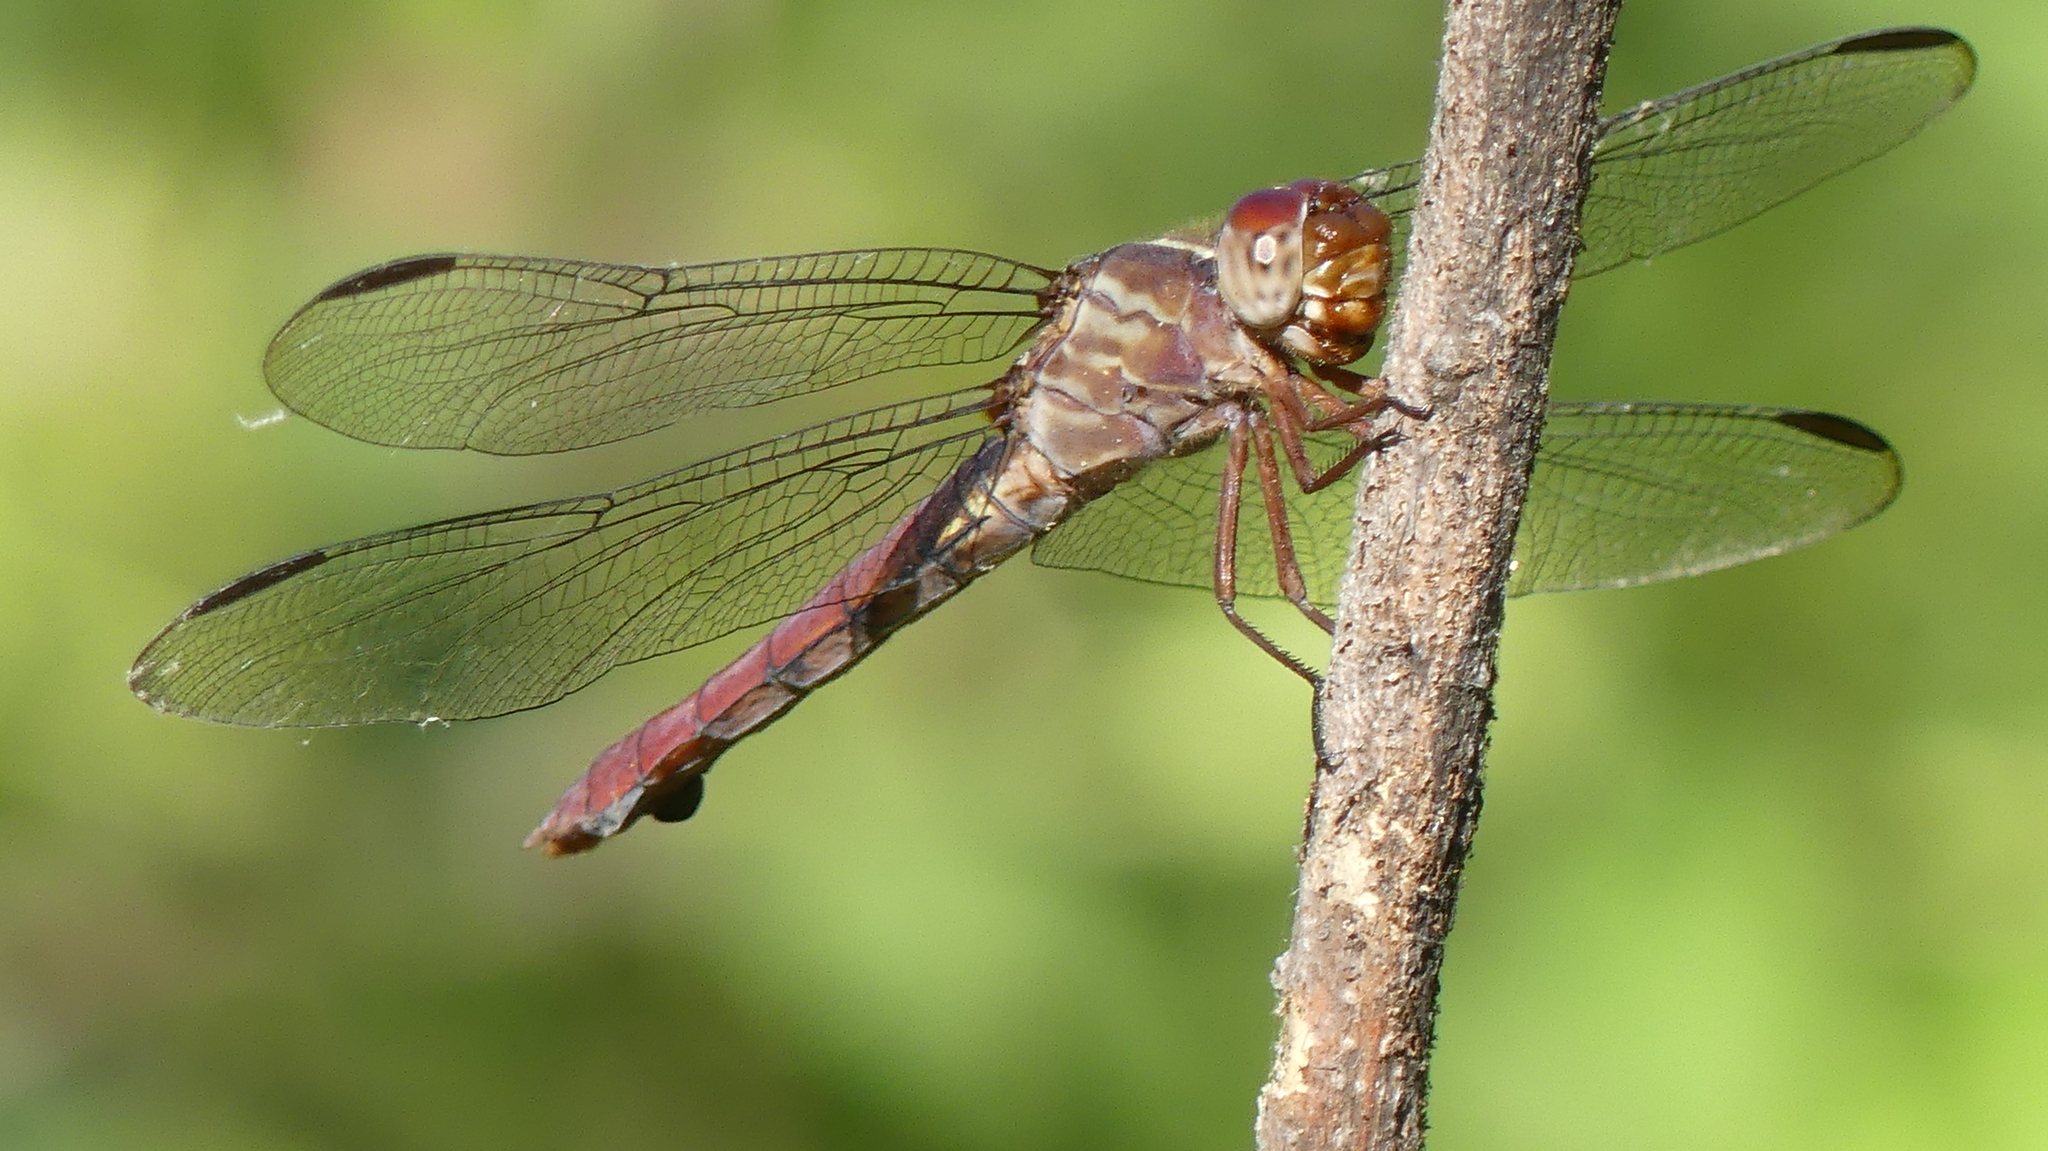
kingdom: Animalia
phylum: Arthropoda
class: Insecta
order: Odonata
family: Libellulidae
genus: Orthemis
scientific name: Orthemis ferruginea
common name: Roseate skimmer
